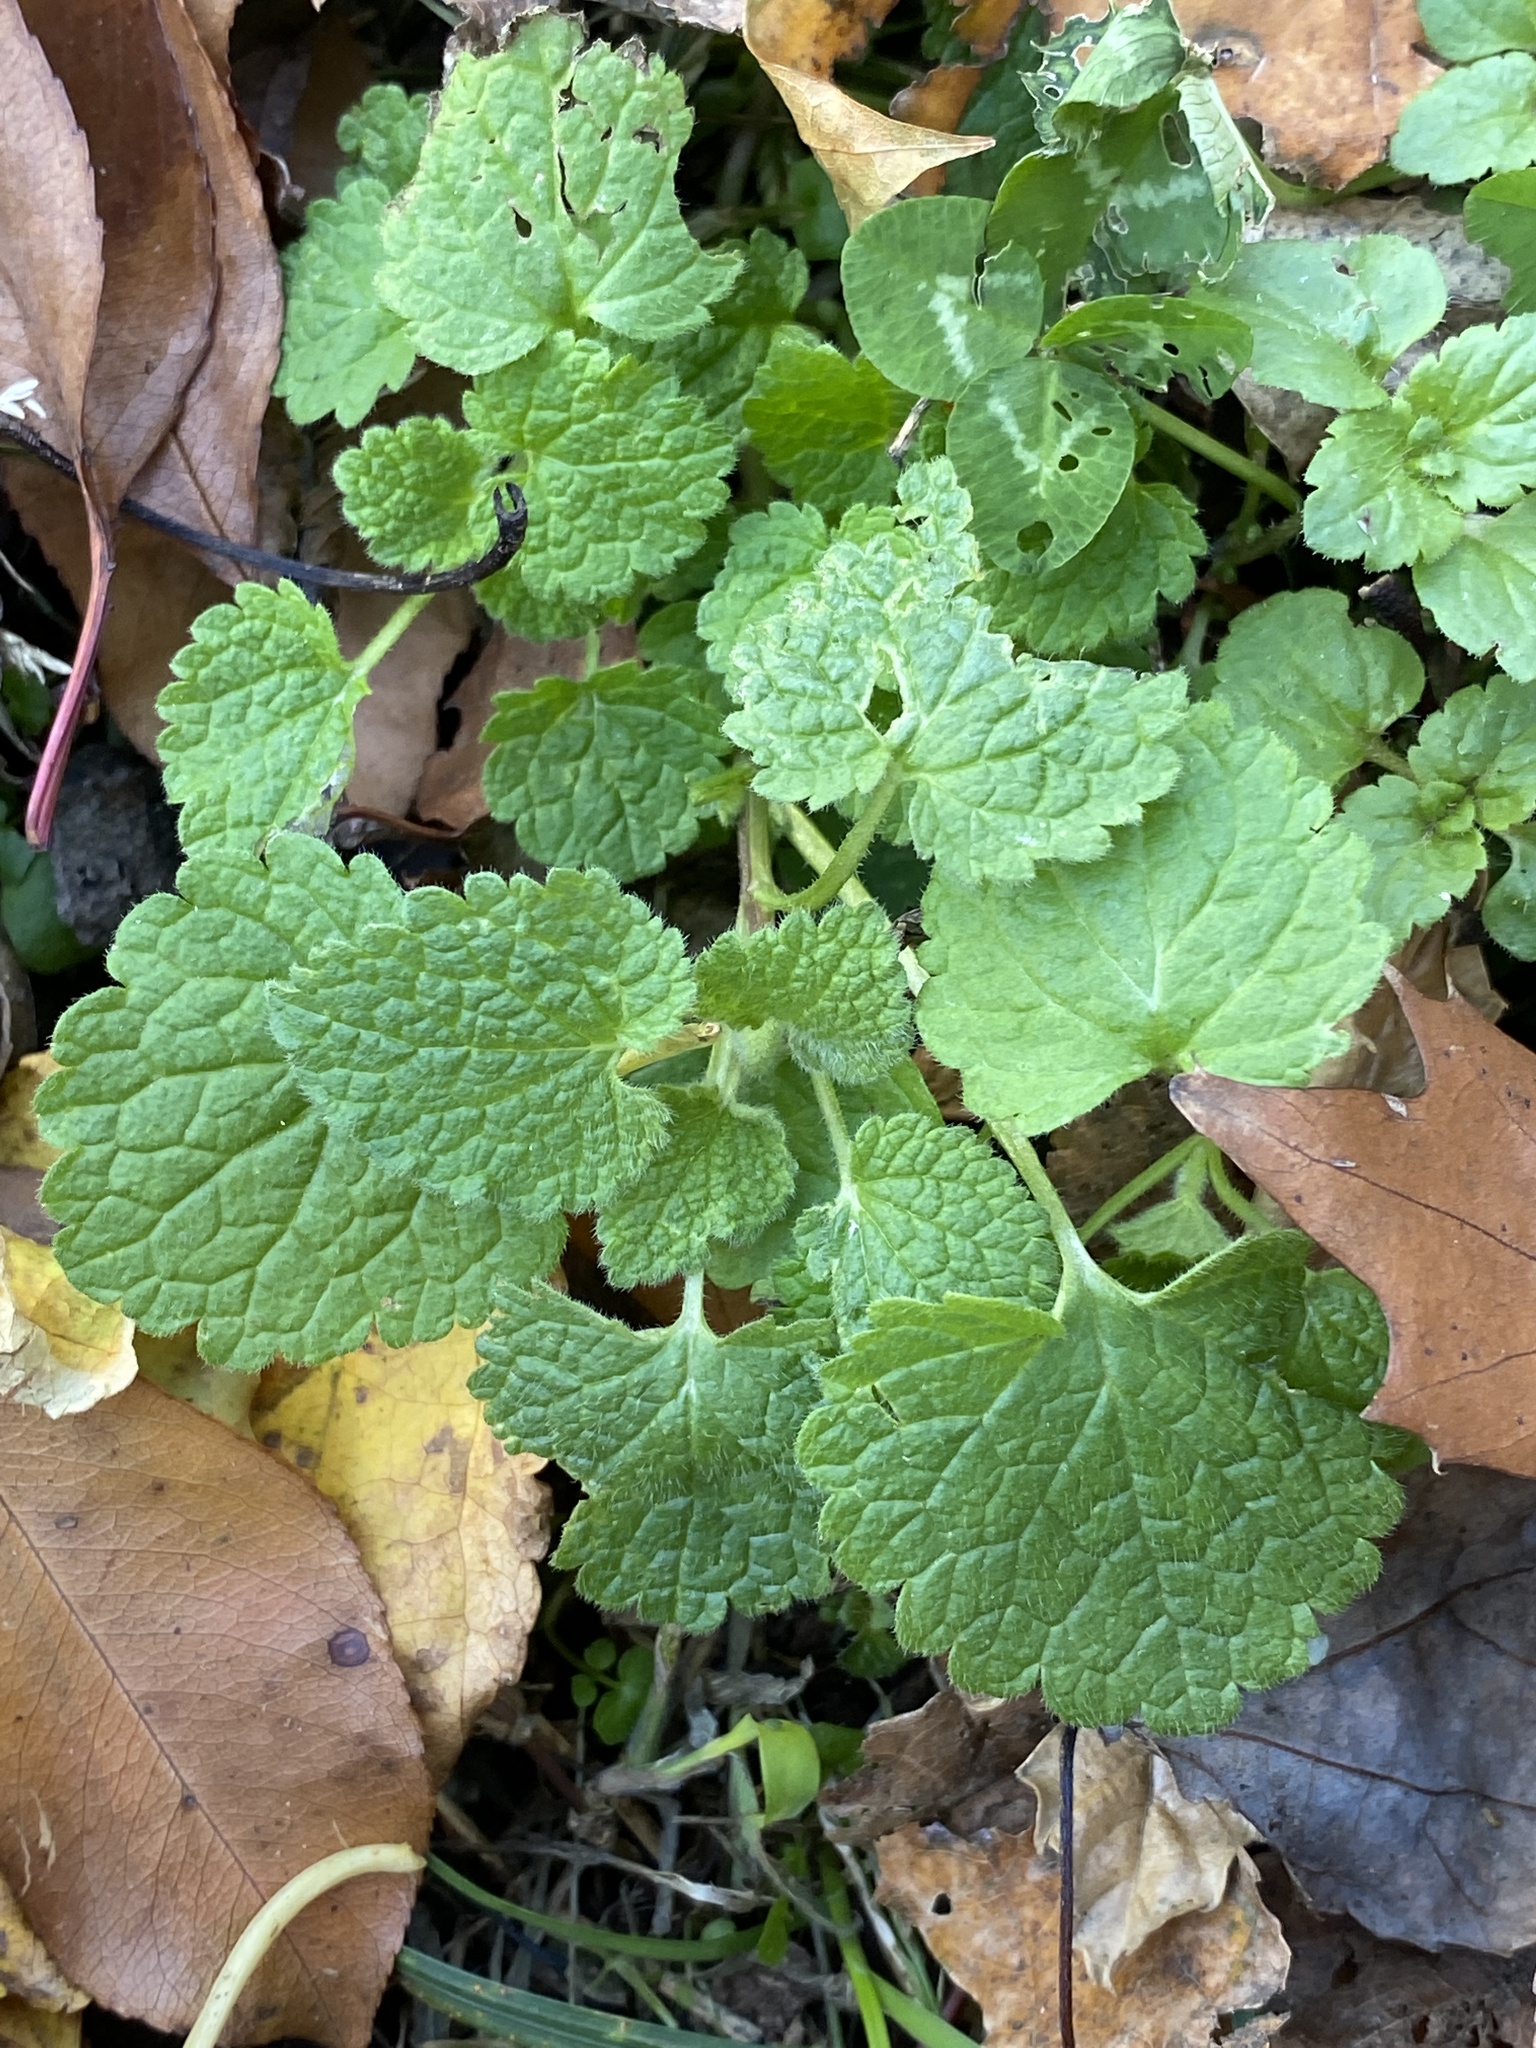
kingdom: Plantae
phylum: Tracheophyta
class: Magnoliopsida
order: Lamiales
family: Lamiaceae
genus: Lamium
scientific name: Lamium purpureum
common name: Red dead-nettle
